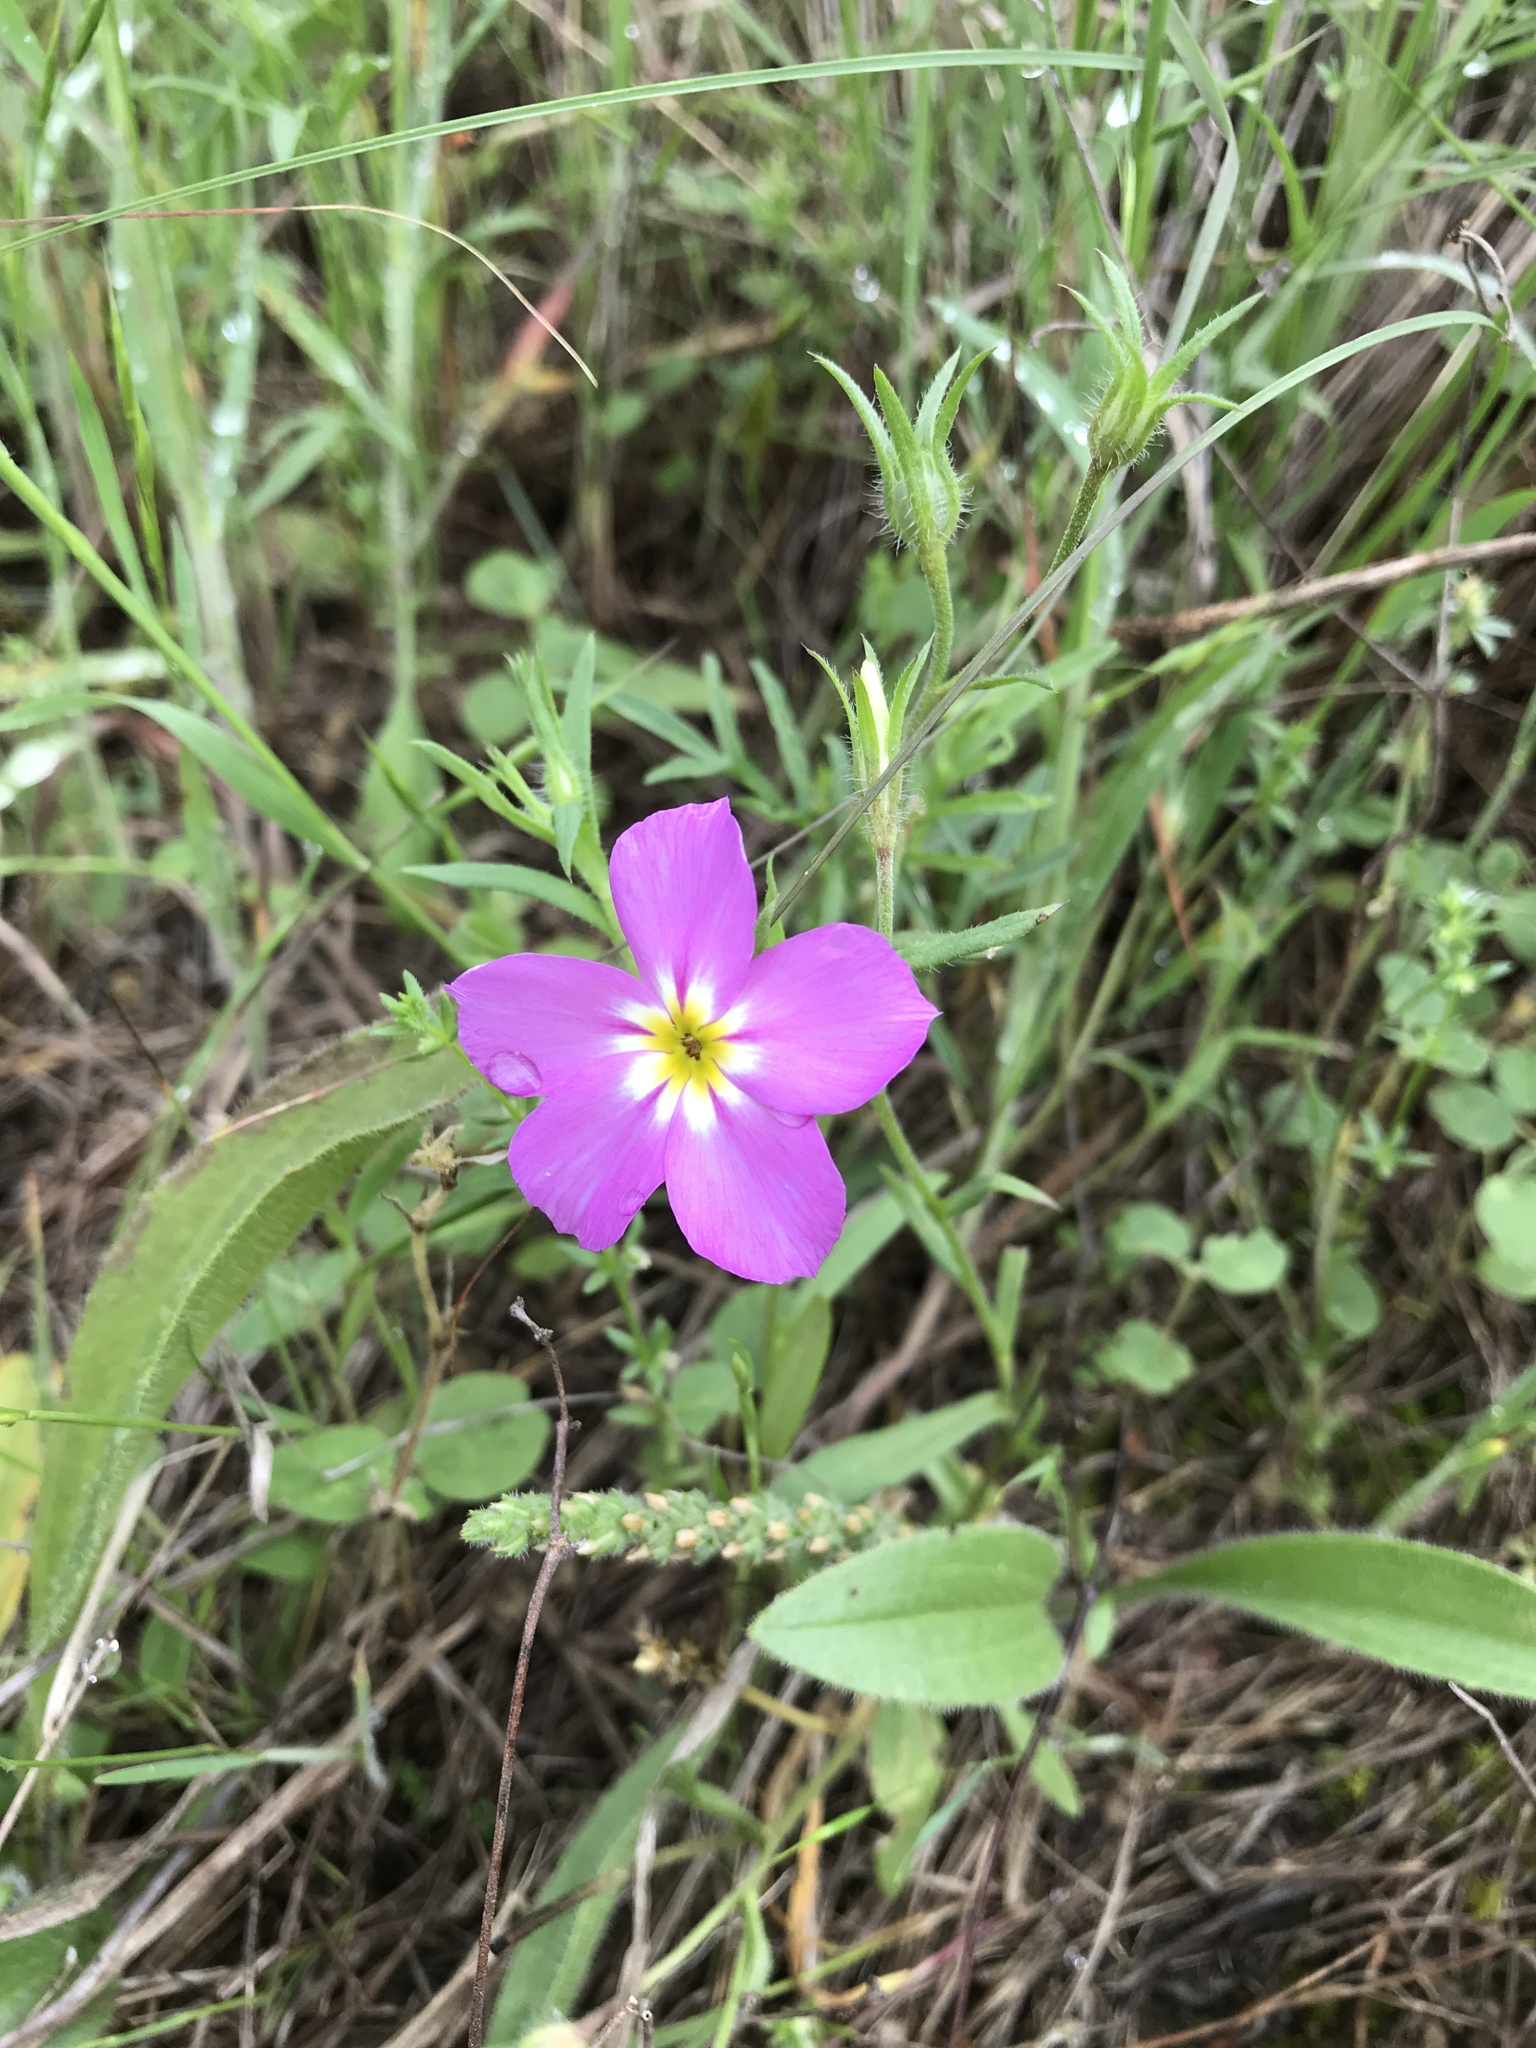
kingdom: Plantae
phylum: Tracheophyta
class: Magnoliopsida
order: Ericales
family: Polemoniaceae
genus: Phlox
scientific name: Phlox roemeriana
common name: Roemer's phlox
